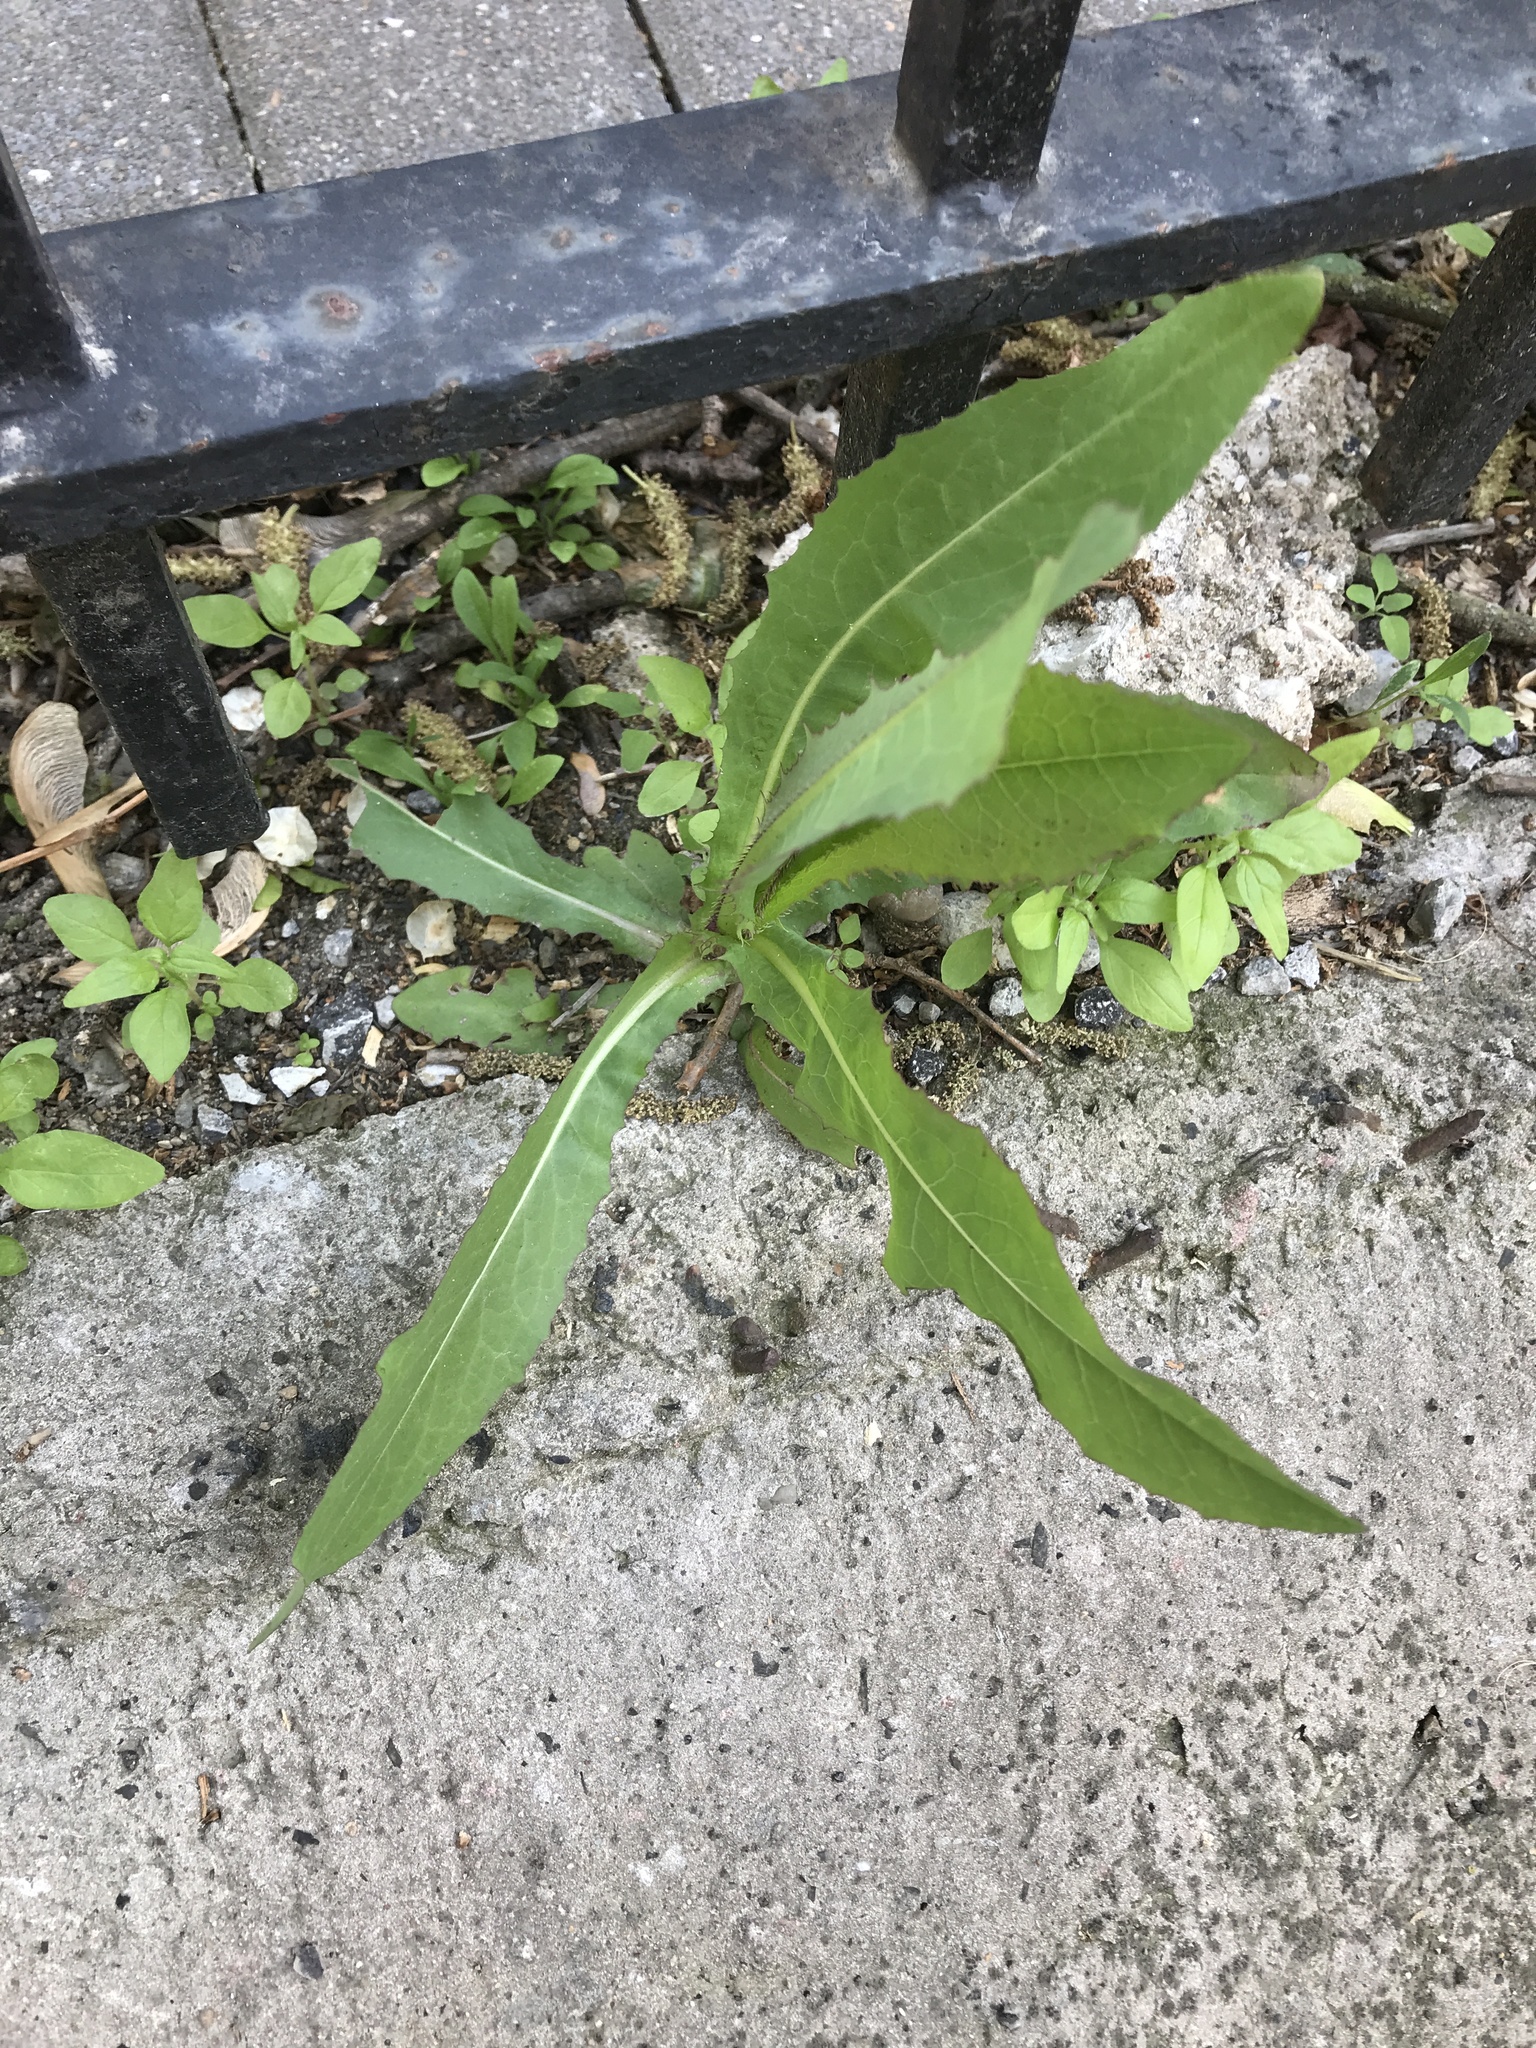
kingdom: Plantae
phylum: Tracheophyta
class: Magnoliopsida
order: Asterales
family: Asteraceae
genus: Lactuca
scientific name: Lactuca serriola
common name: Prickly lettuce
